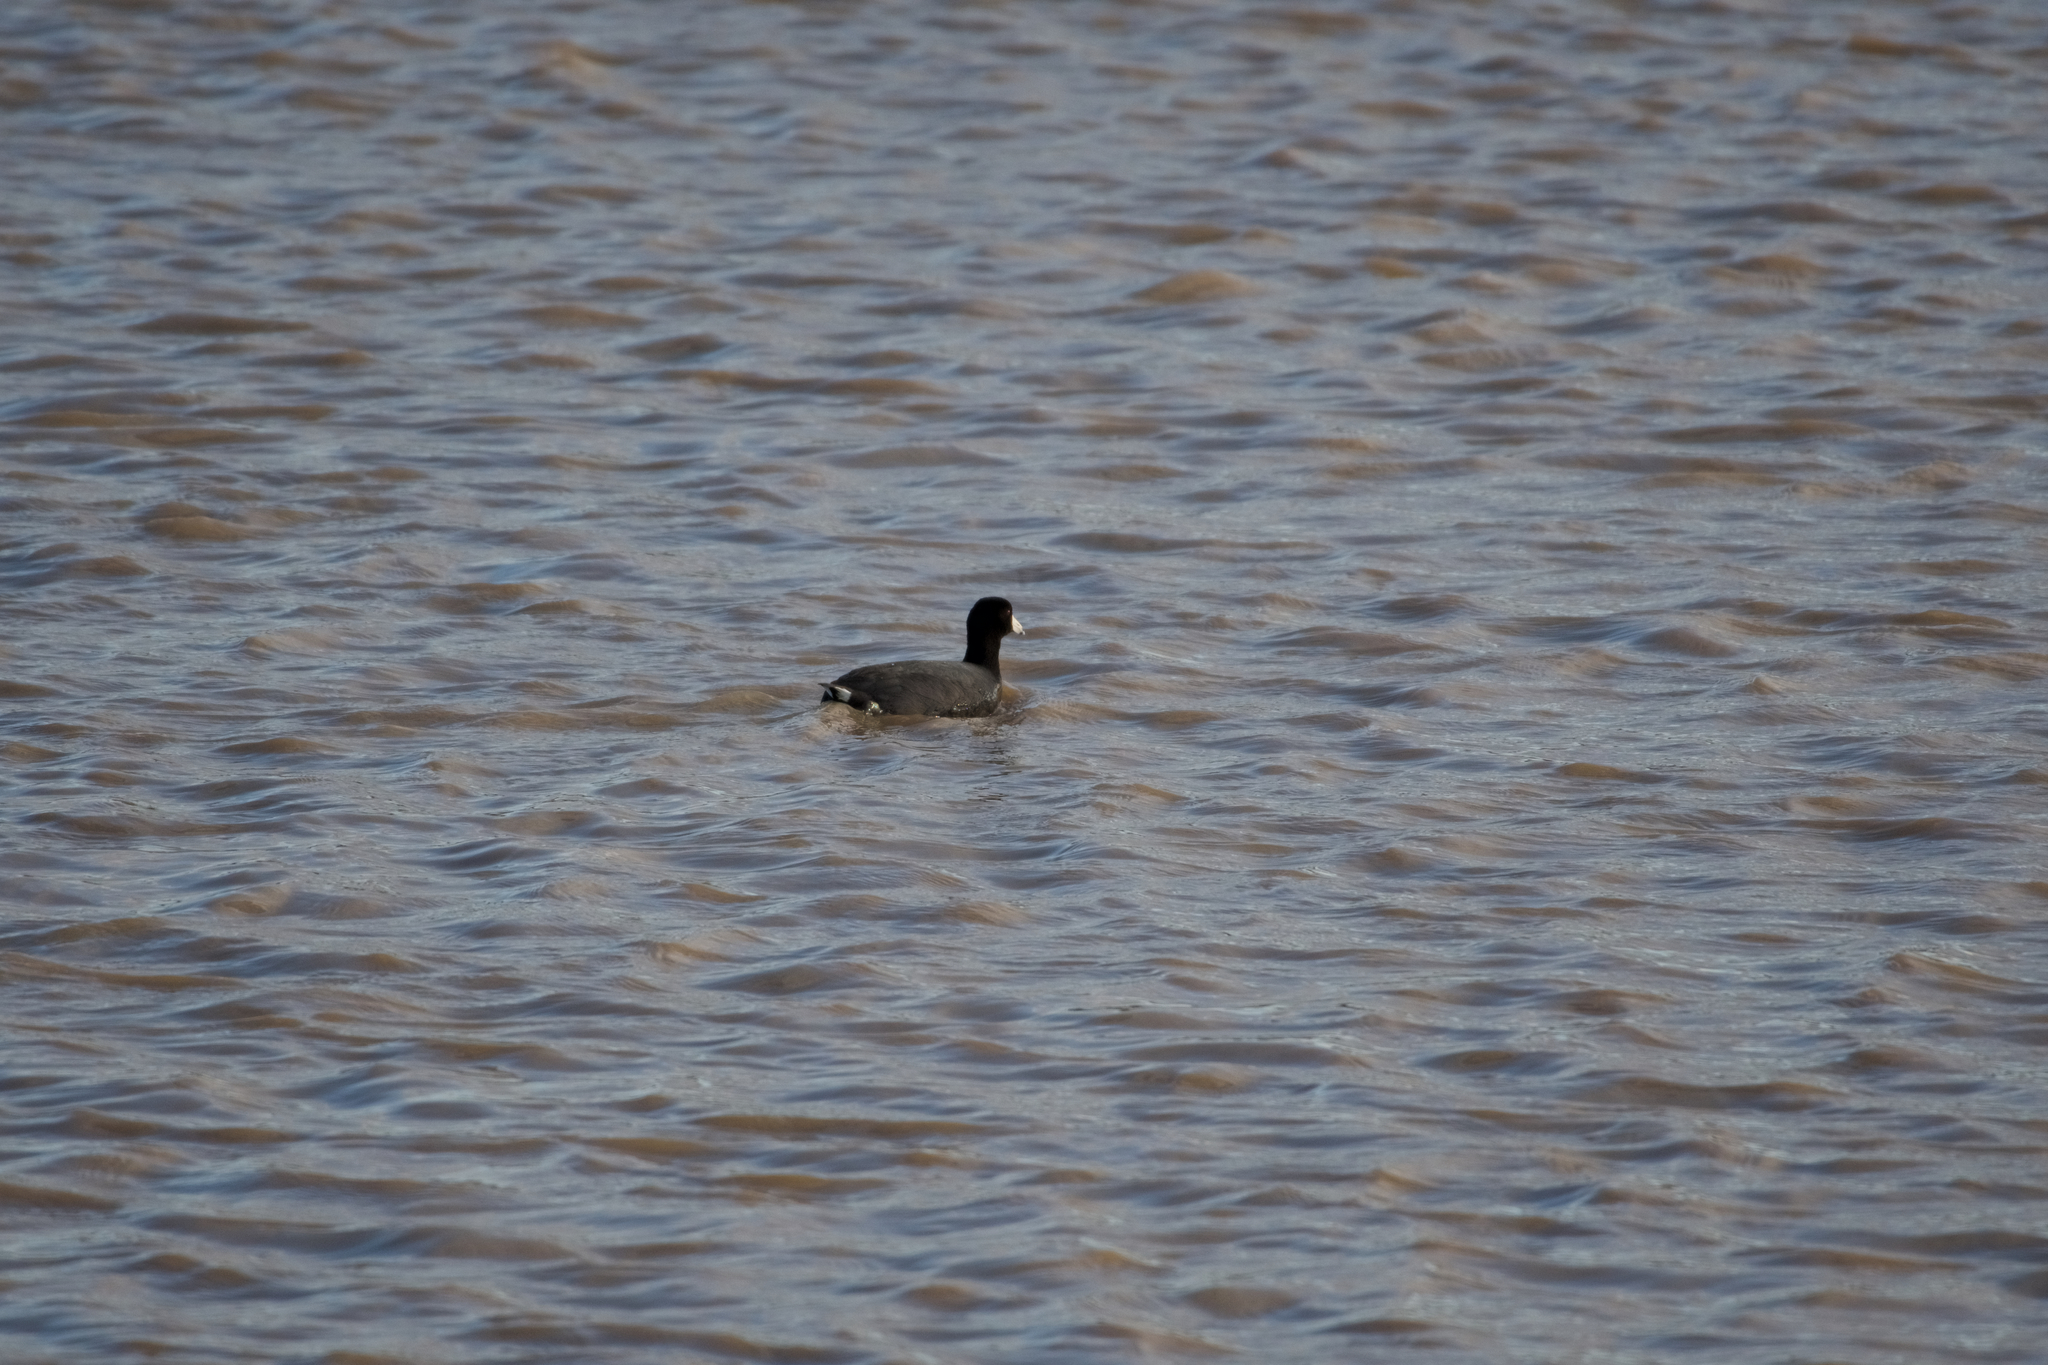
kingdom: Animalia
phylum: Chordata
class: Aves
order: Gruiformes
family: Rallidae
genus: Fulica
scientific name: Fulica americana
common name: American coot
